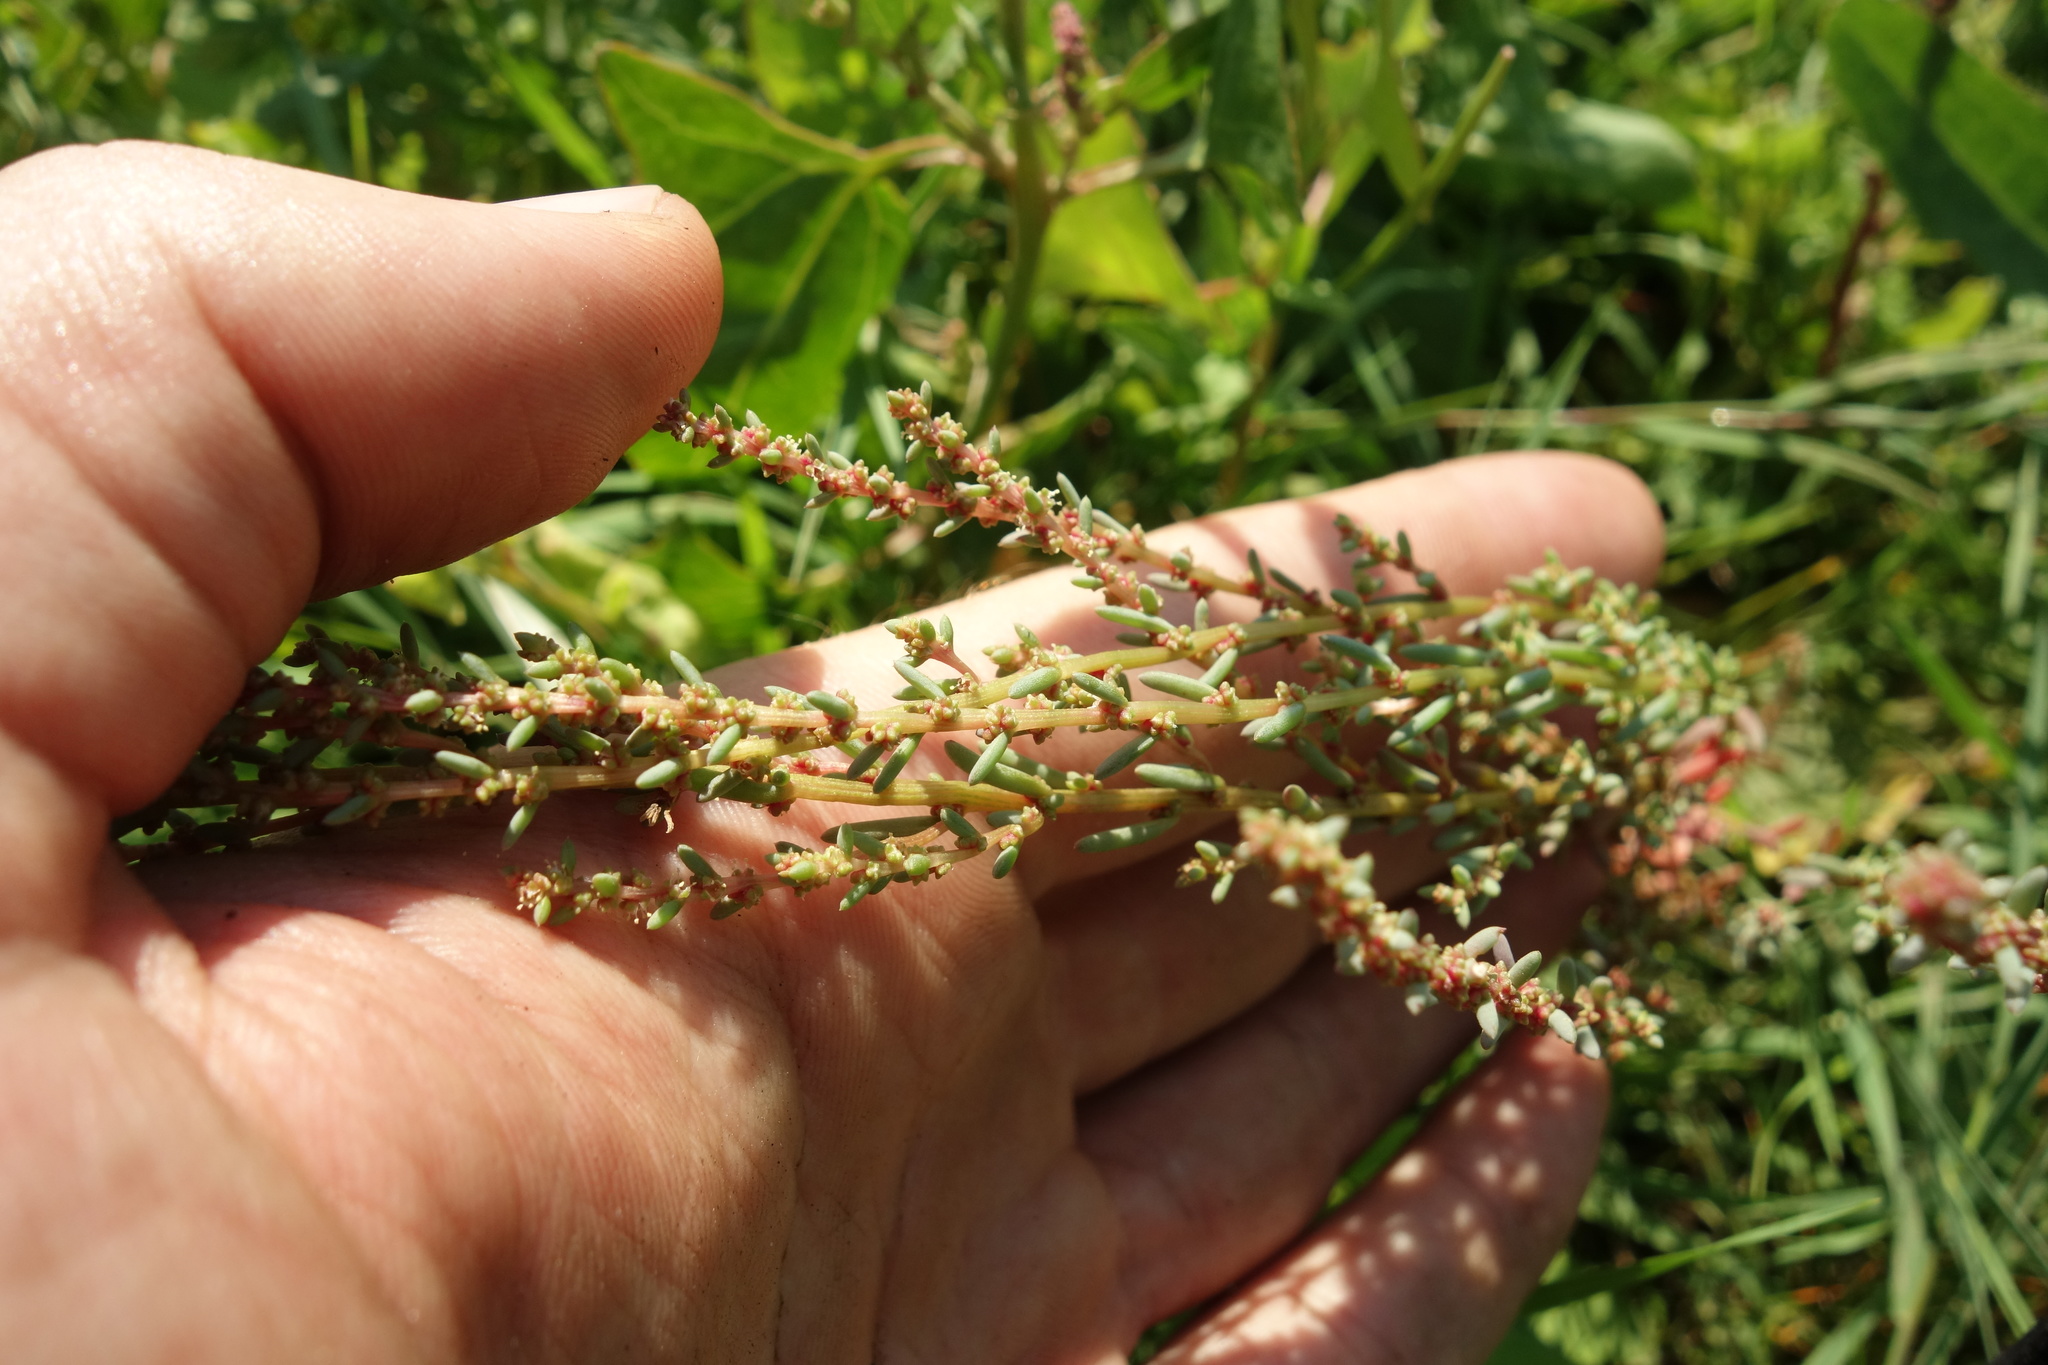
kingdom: Plantae
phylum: Tracheophyta
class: Magnoliopsida
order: Caryophyllales
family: Amaranthaceae
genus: Suaeda
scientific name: Suaeda prostrata
